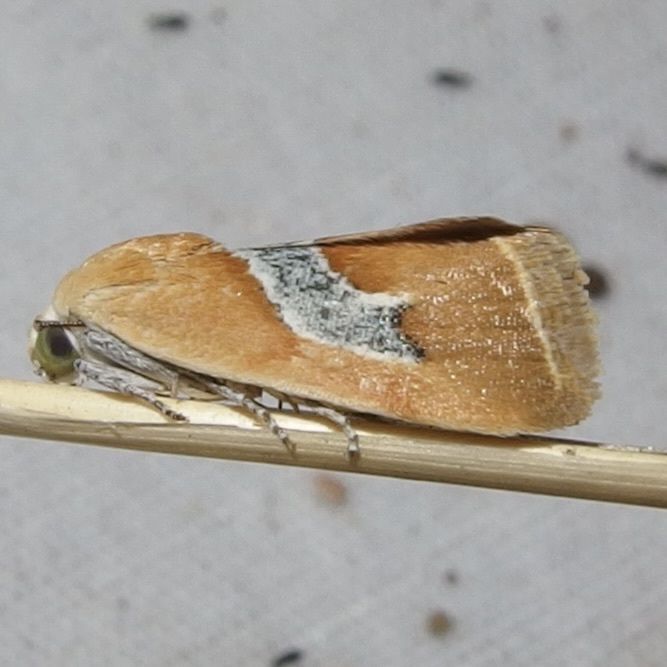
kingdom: Animalia
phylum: Arthropoda
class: Insecta
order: Lepidoptera
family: Noctuidae
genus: Ponometia
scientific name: Ponometia venustula
